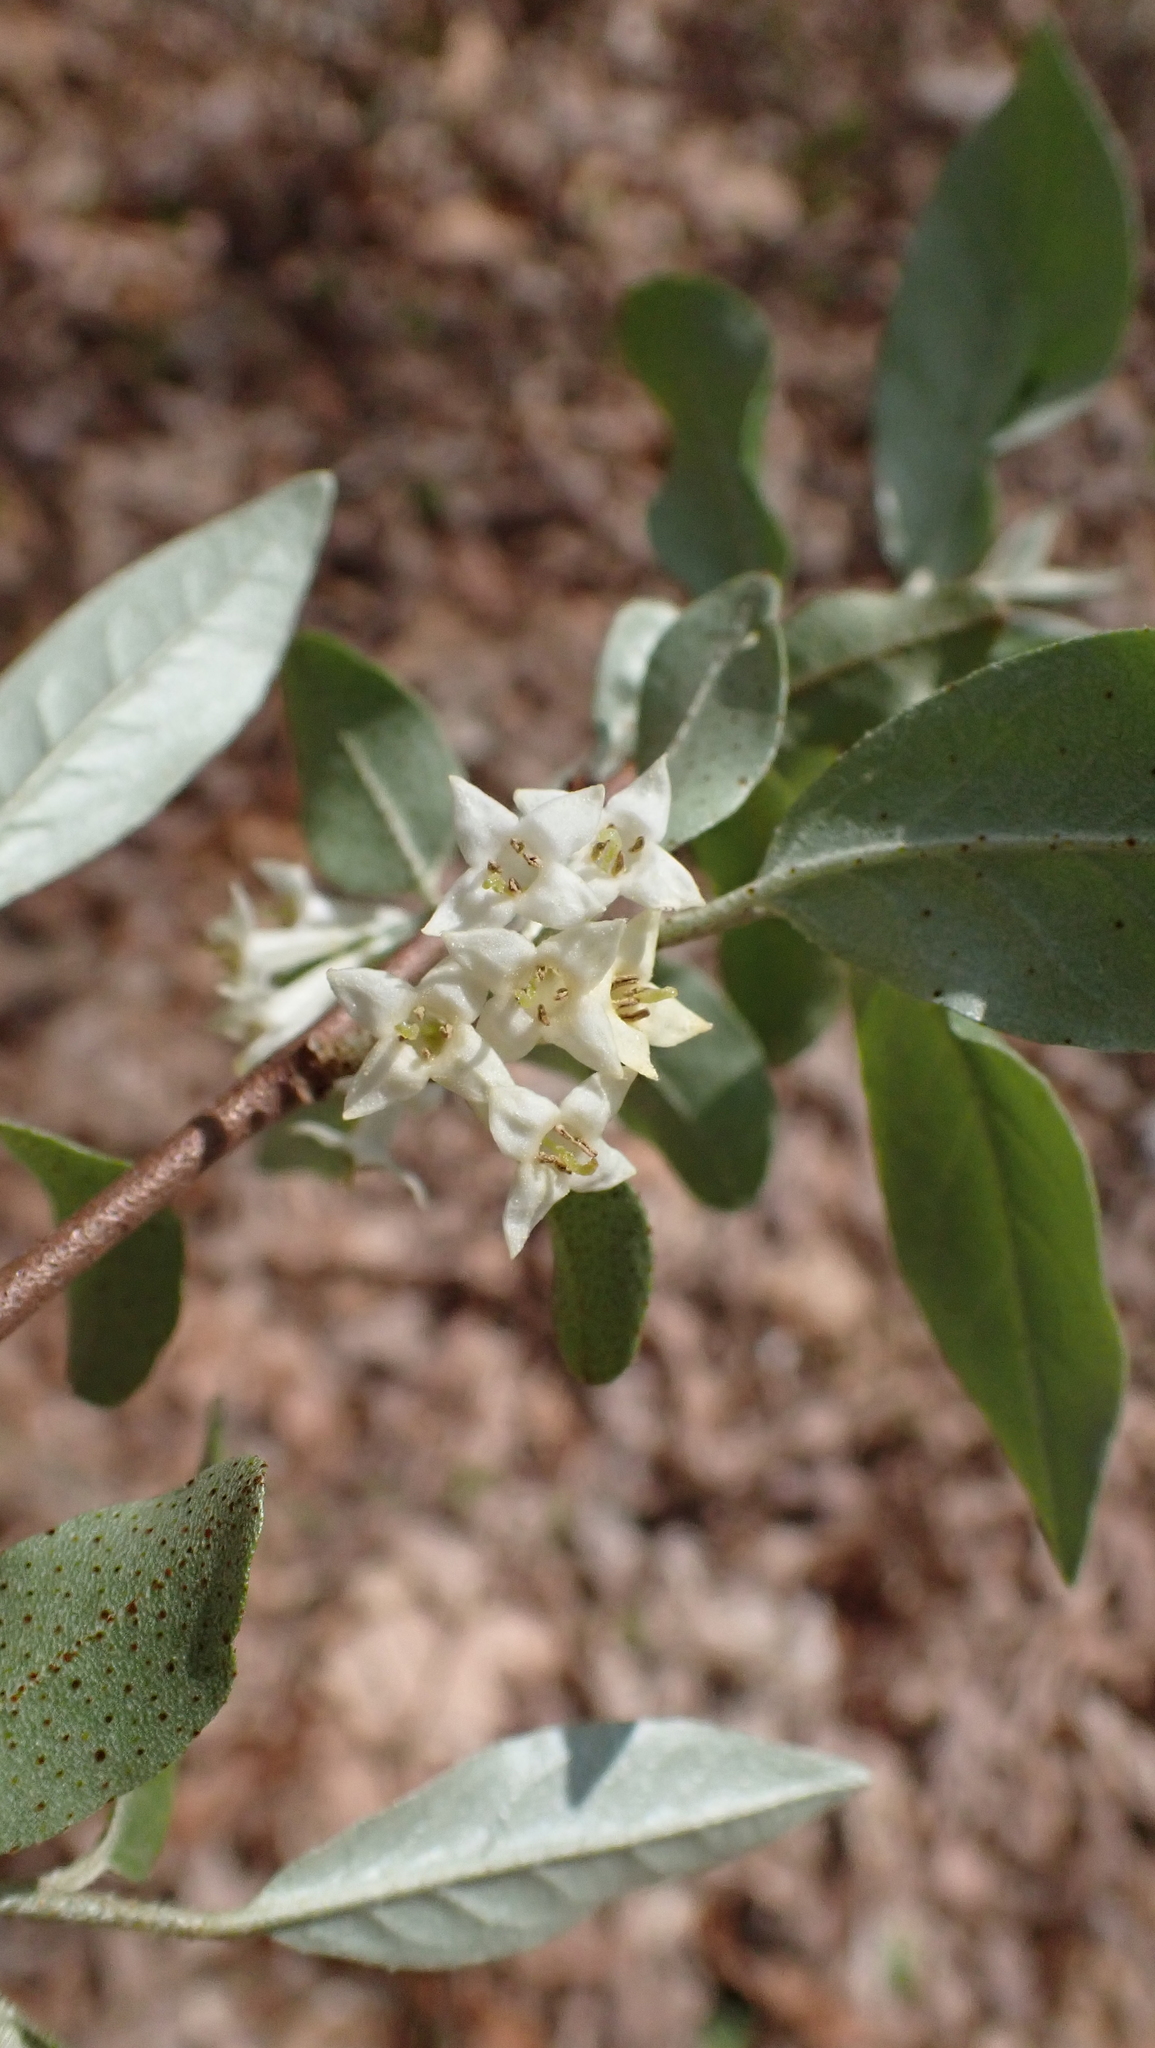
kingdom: Plantae
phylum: Tracheophyta
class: Magnoliopsida
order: Rosales
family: Elaeagnaceae
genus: Elaeagnus
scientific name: Elaeagnus umbellata
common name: Autumn olive
